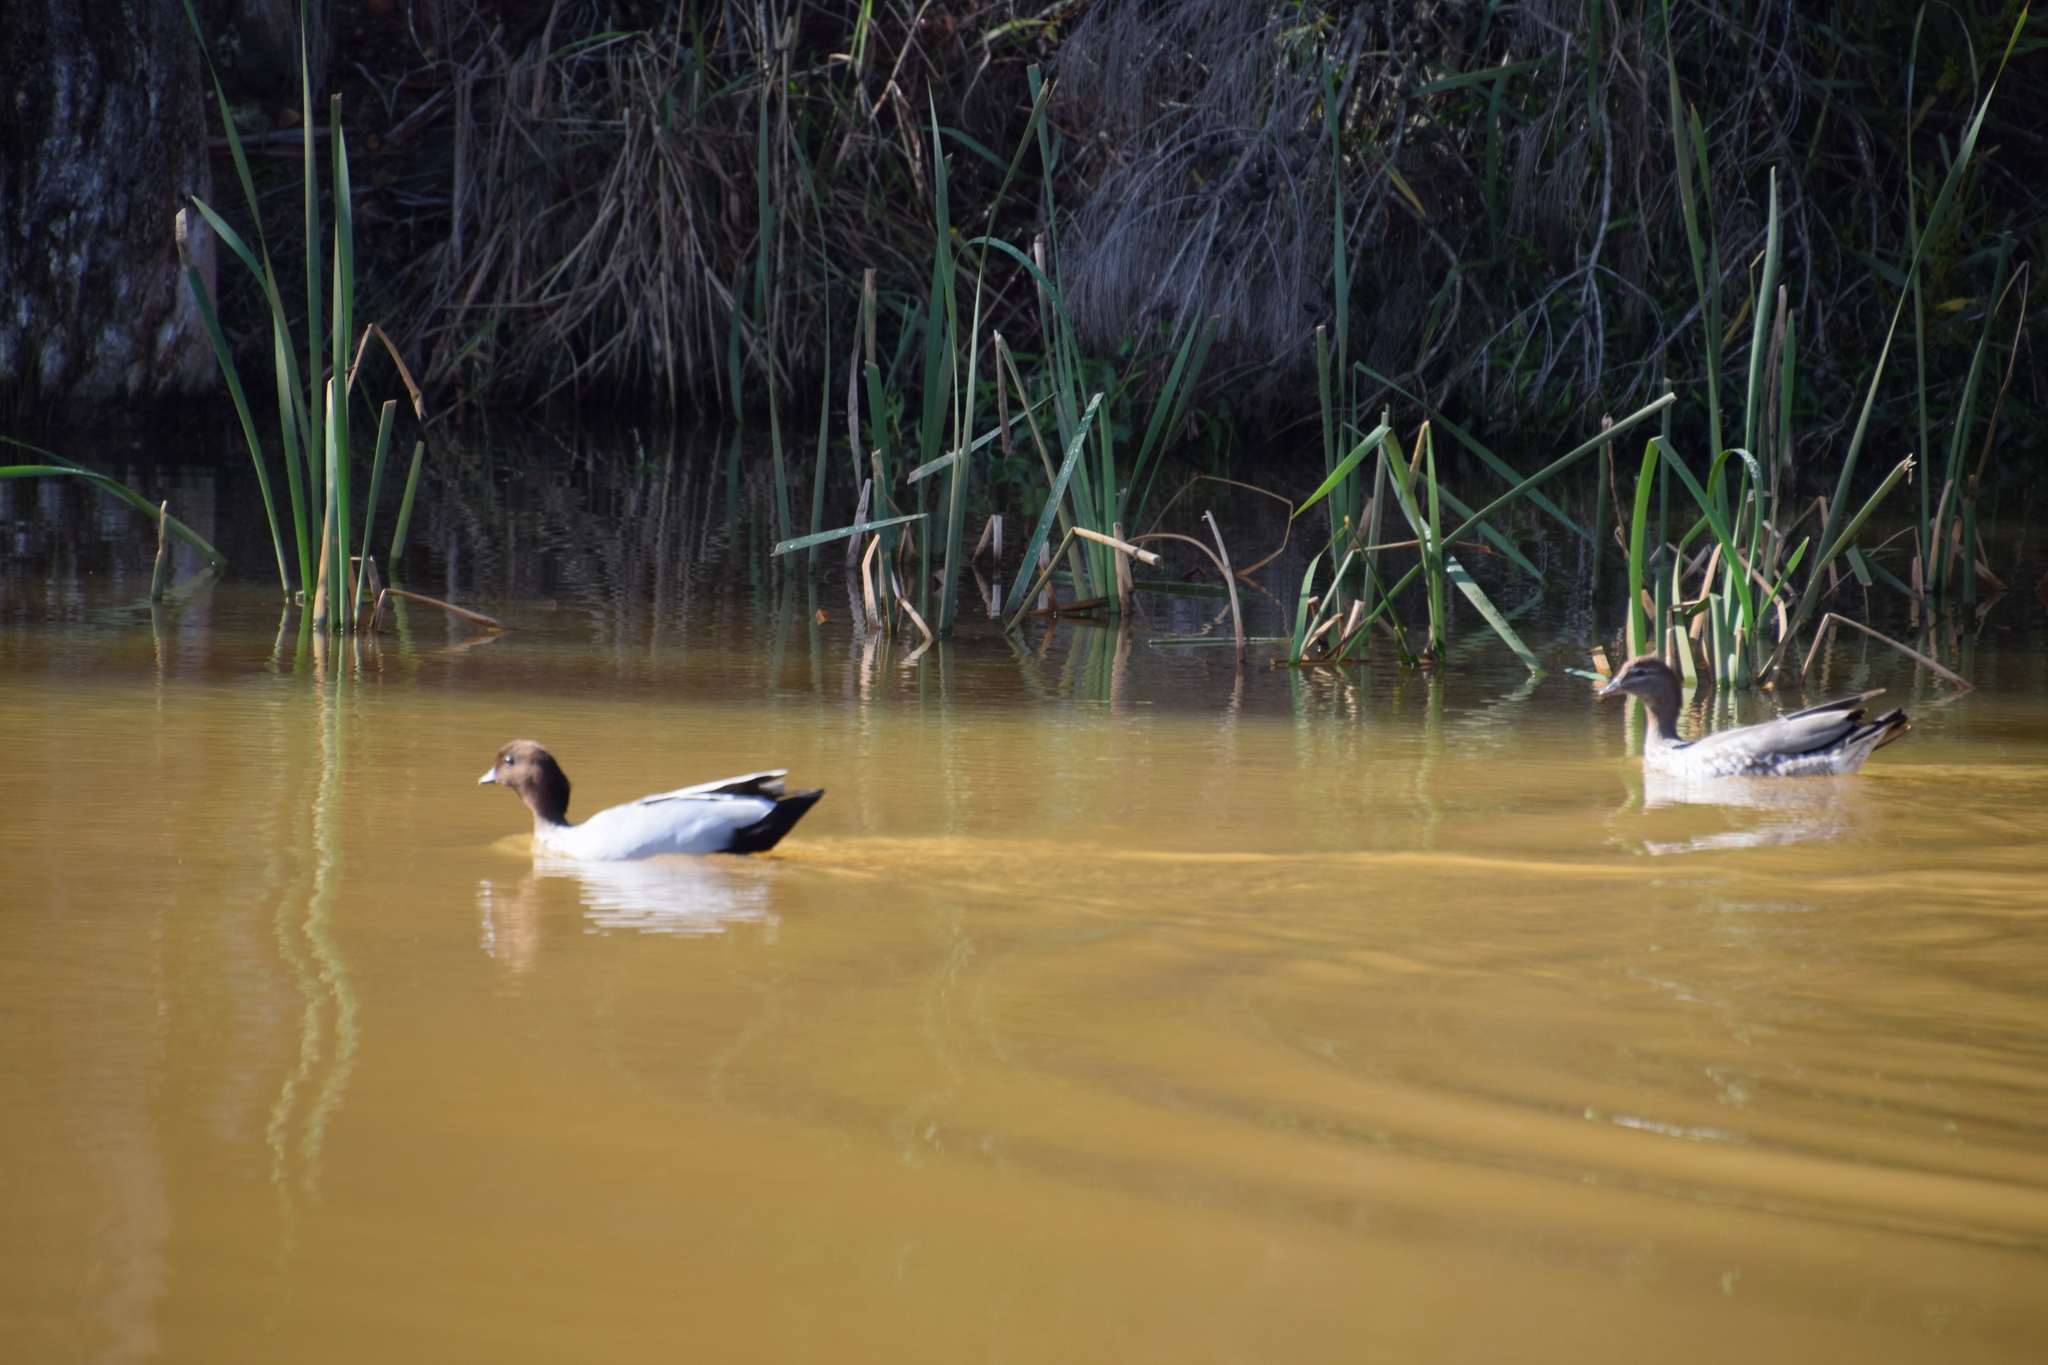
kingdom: Animalia
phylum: Chordata
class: Aves
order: Anseriformes
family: Anatidae
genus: Chenonetta
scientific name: Chenonetta jubata
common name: Maned duck
